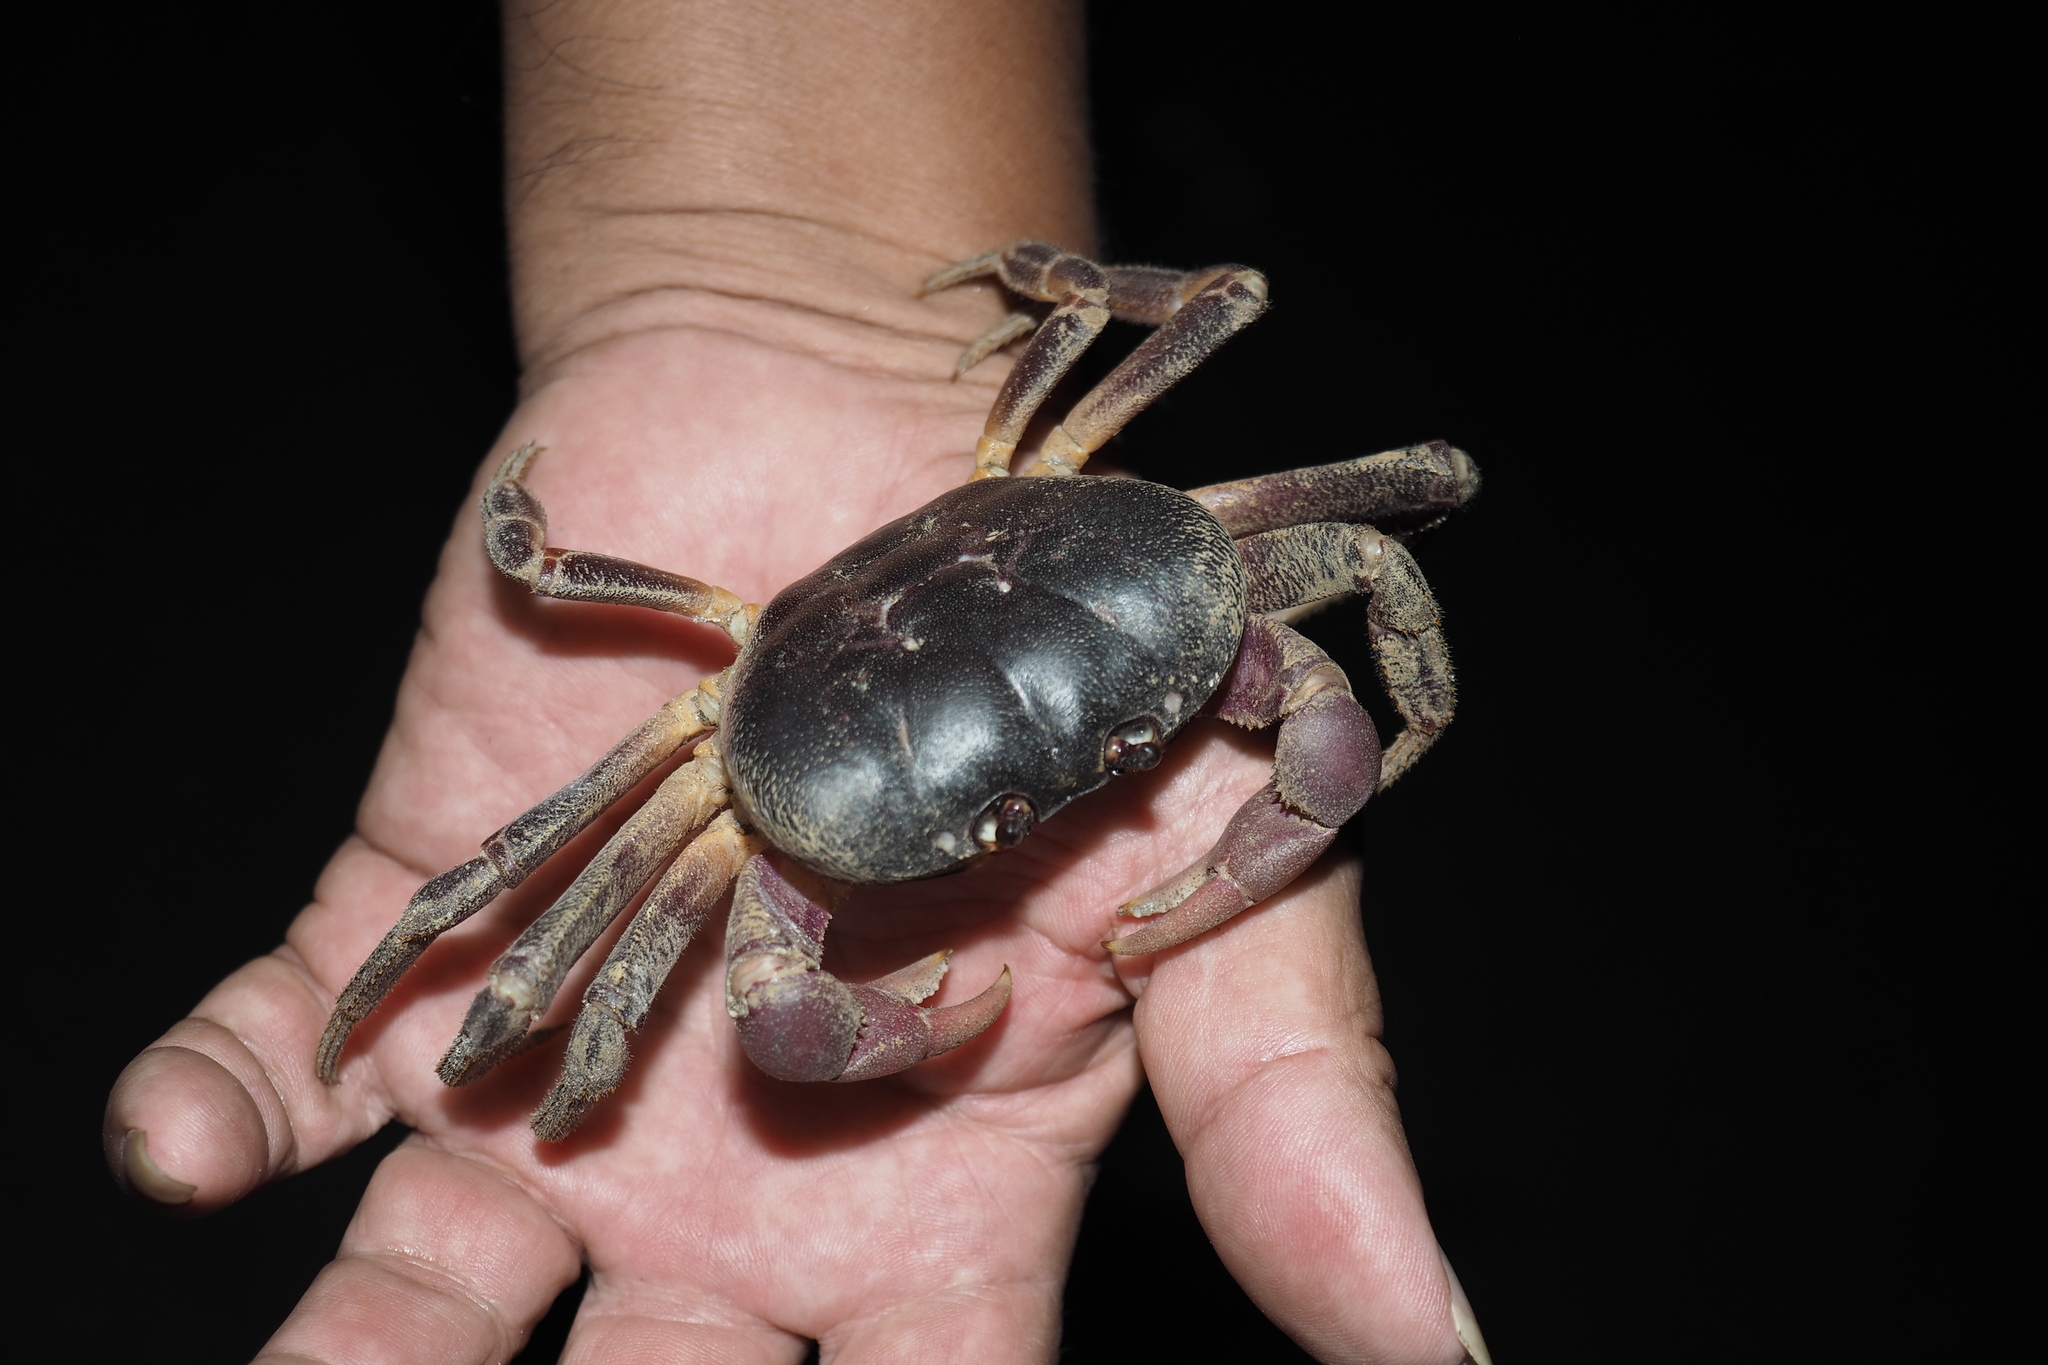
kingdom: Animalia
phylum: Arthropoda
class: Malacostraca
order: Decapoda
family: Gecarcinidae
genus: Gecarcoidea
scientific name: Gecarcoidea lalandii
